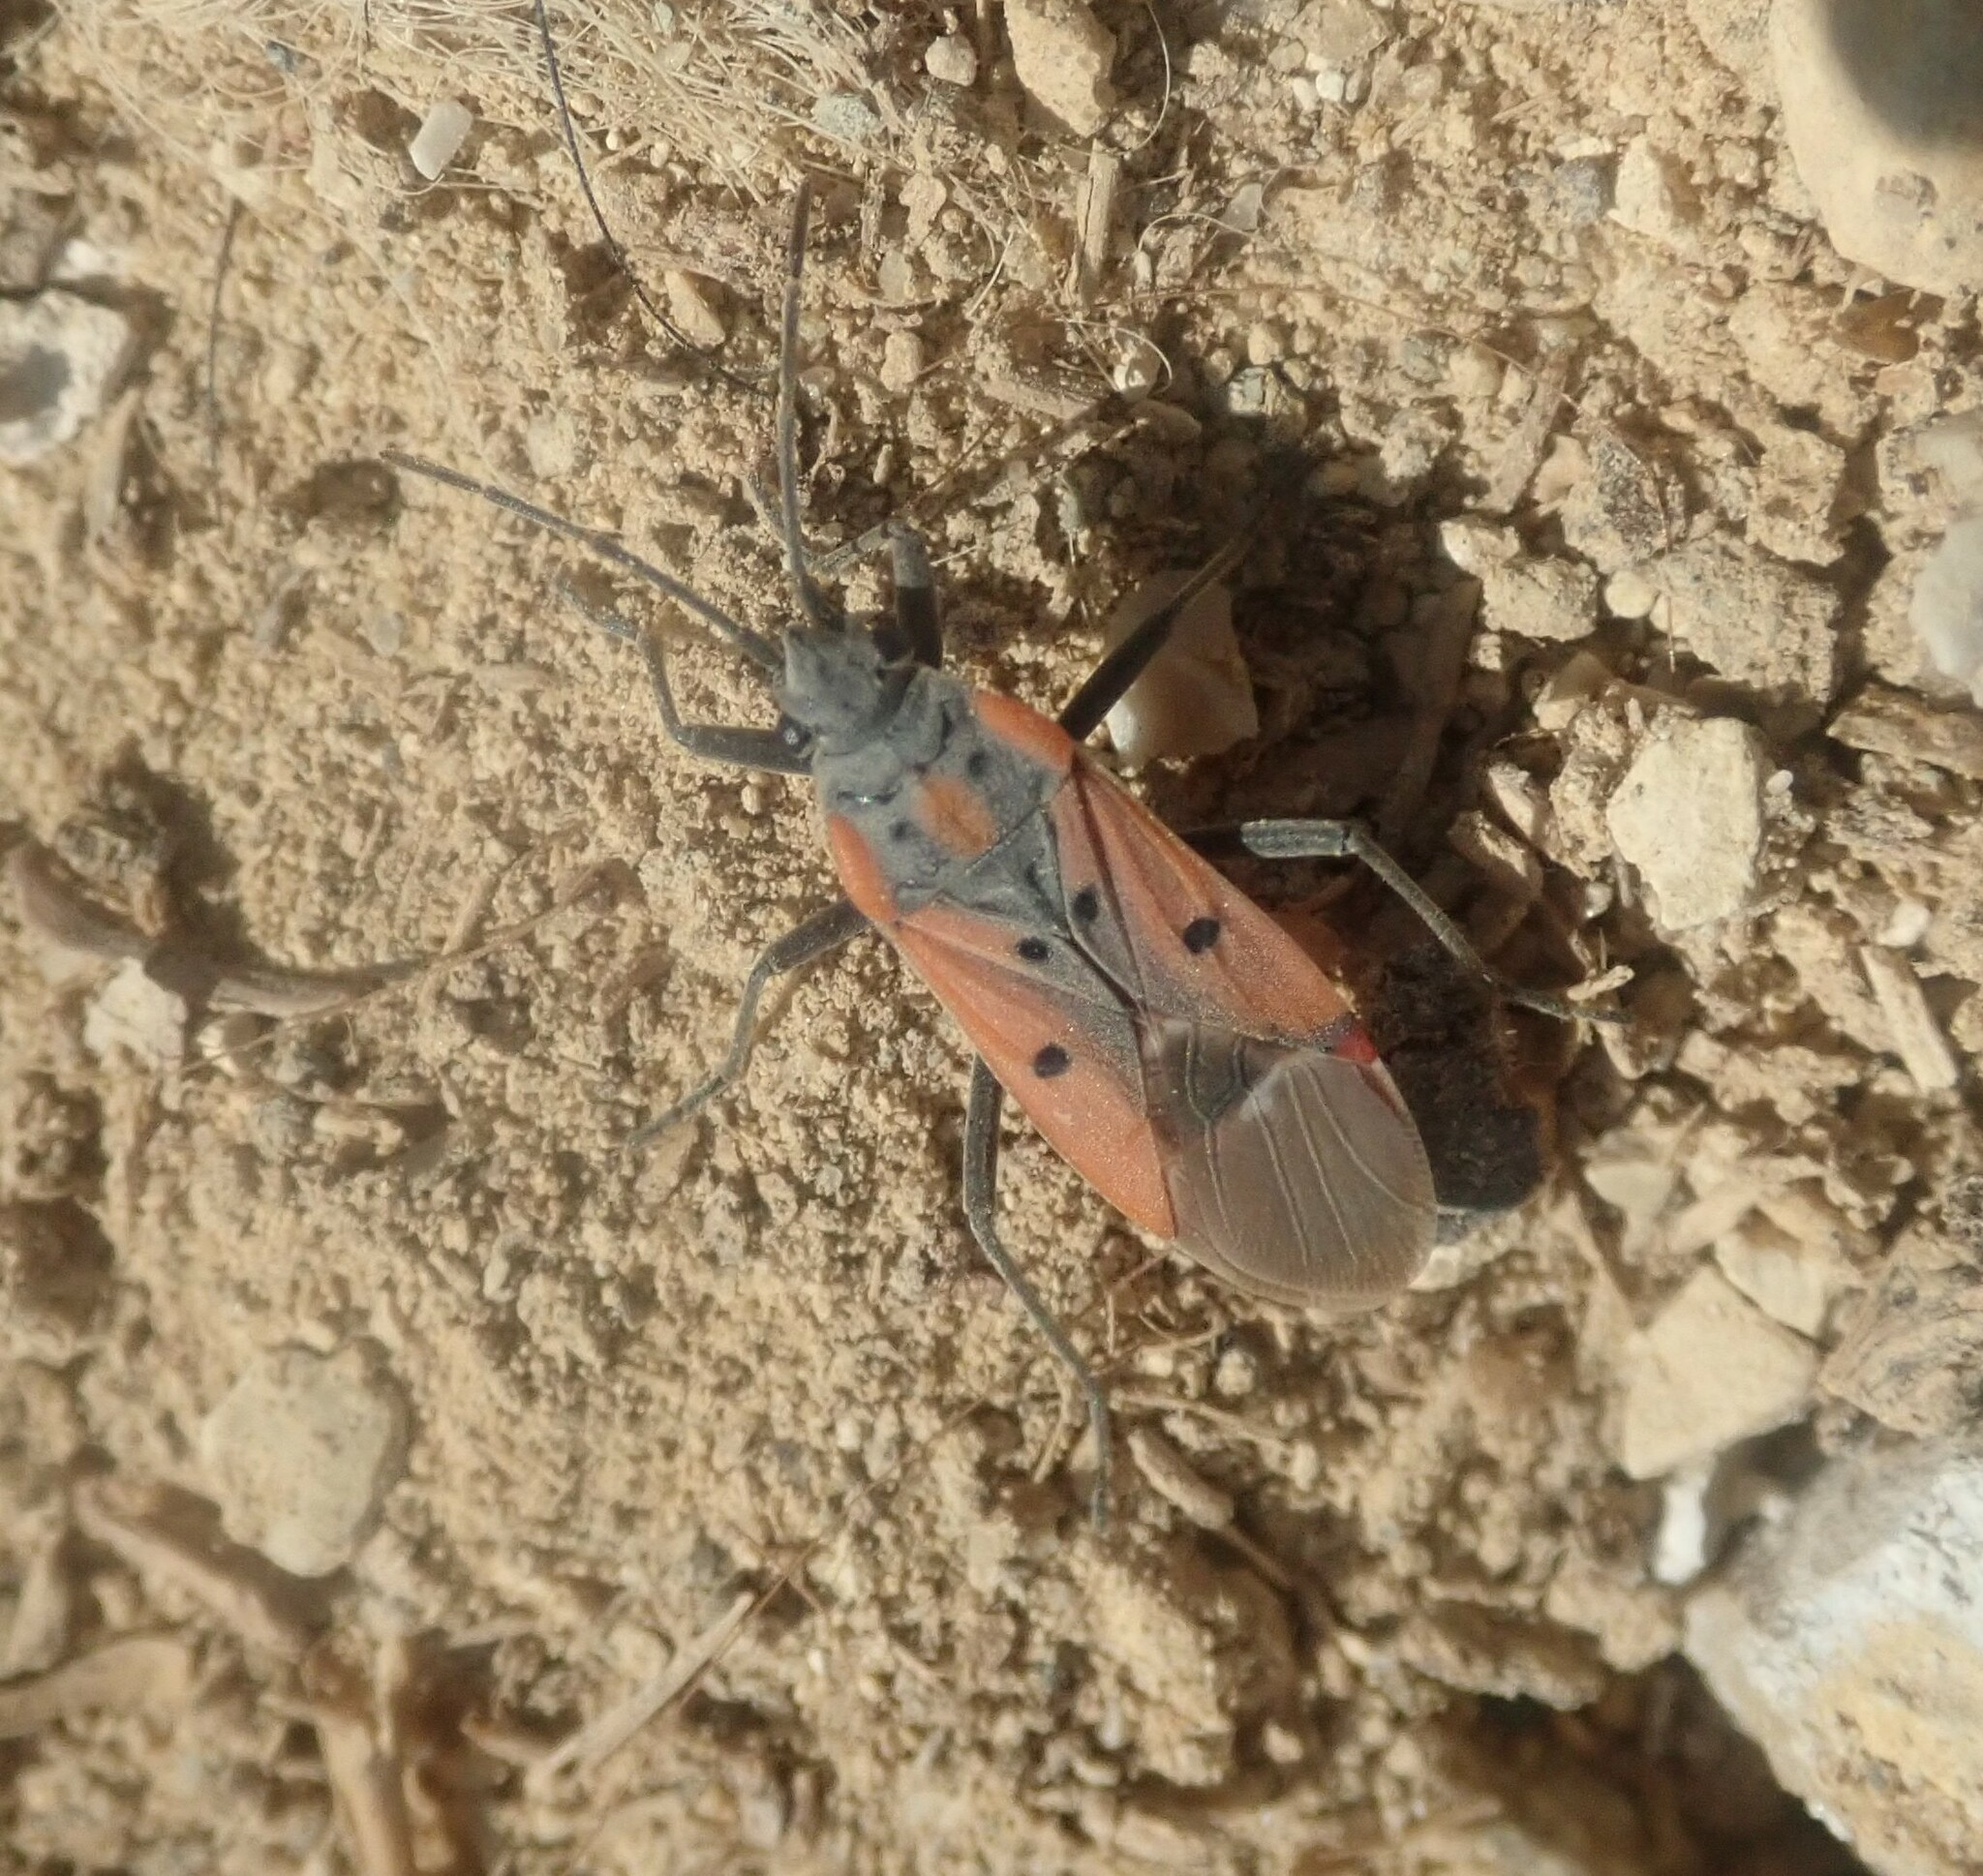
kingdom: Animalia
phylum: Arthropoda
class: Insecta
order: Hemiptera
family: Lygaeidae
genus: Lygaeus
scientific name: Lygaeus creticus
